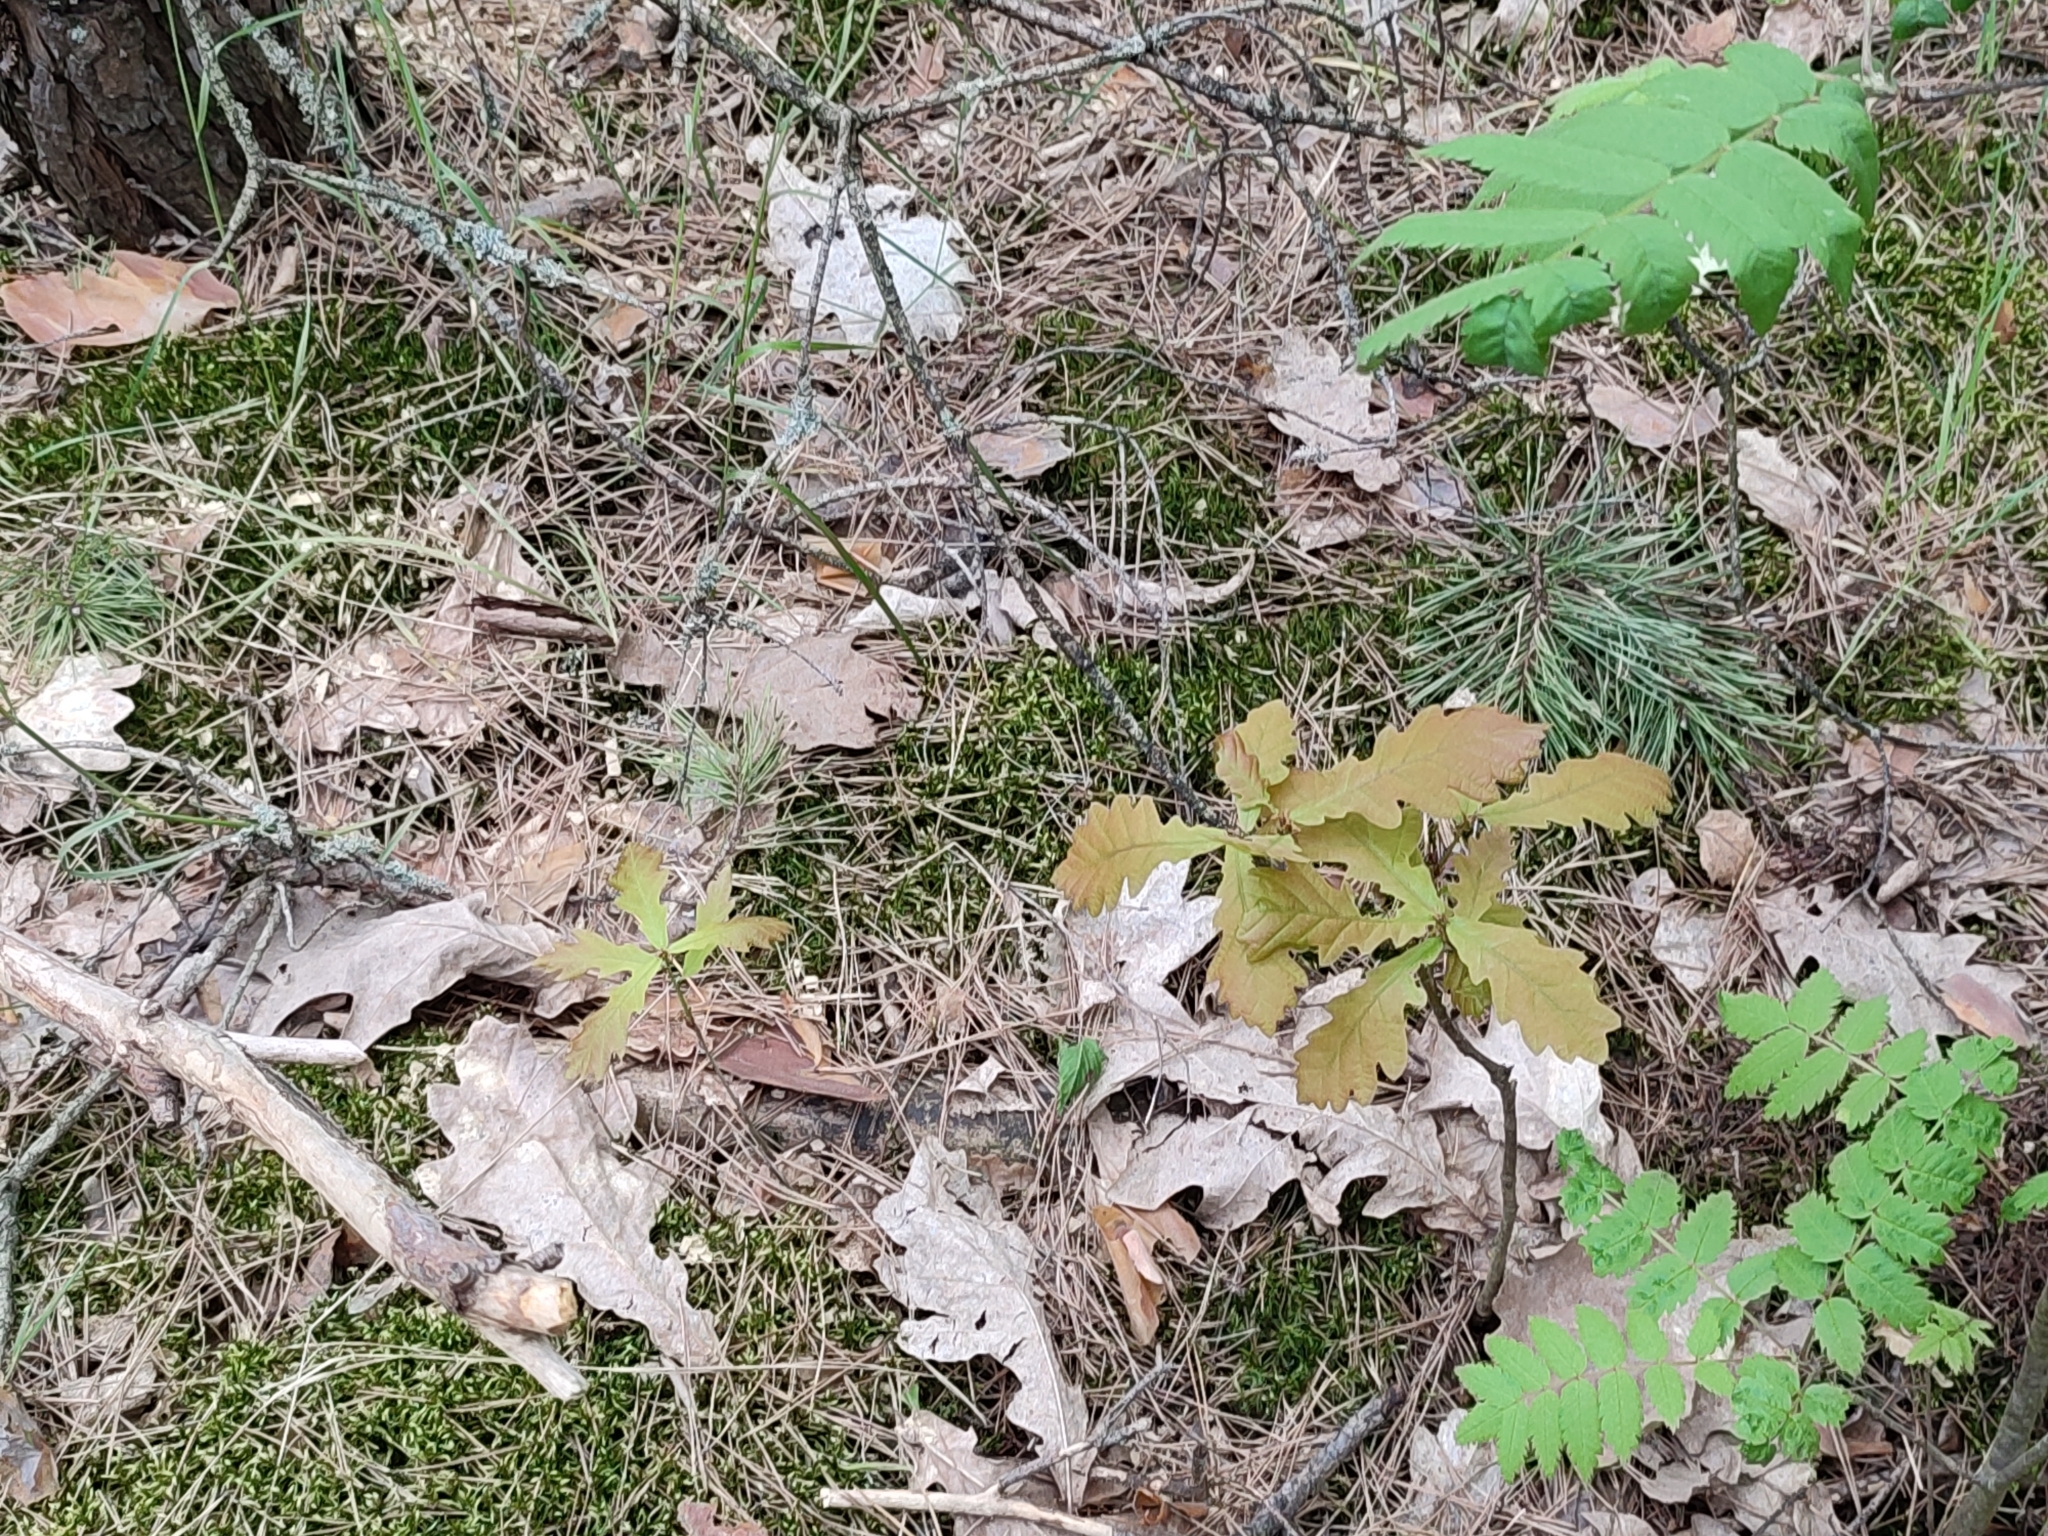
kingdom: Plantae
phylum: Tracheophyta
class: Magnoliopsida
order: Fagales
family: Fagaceae
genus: Quercus
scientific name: Quercus robur
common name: Pedunculate oak
